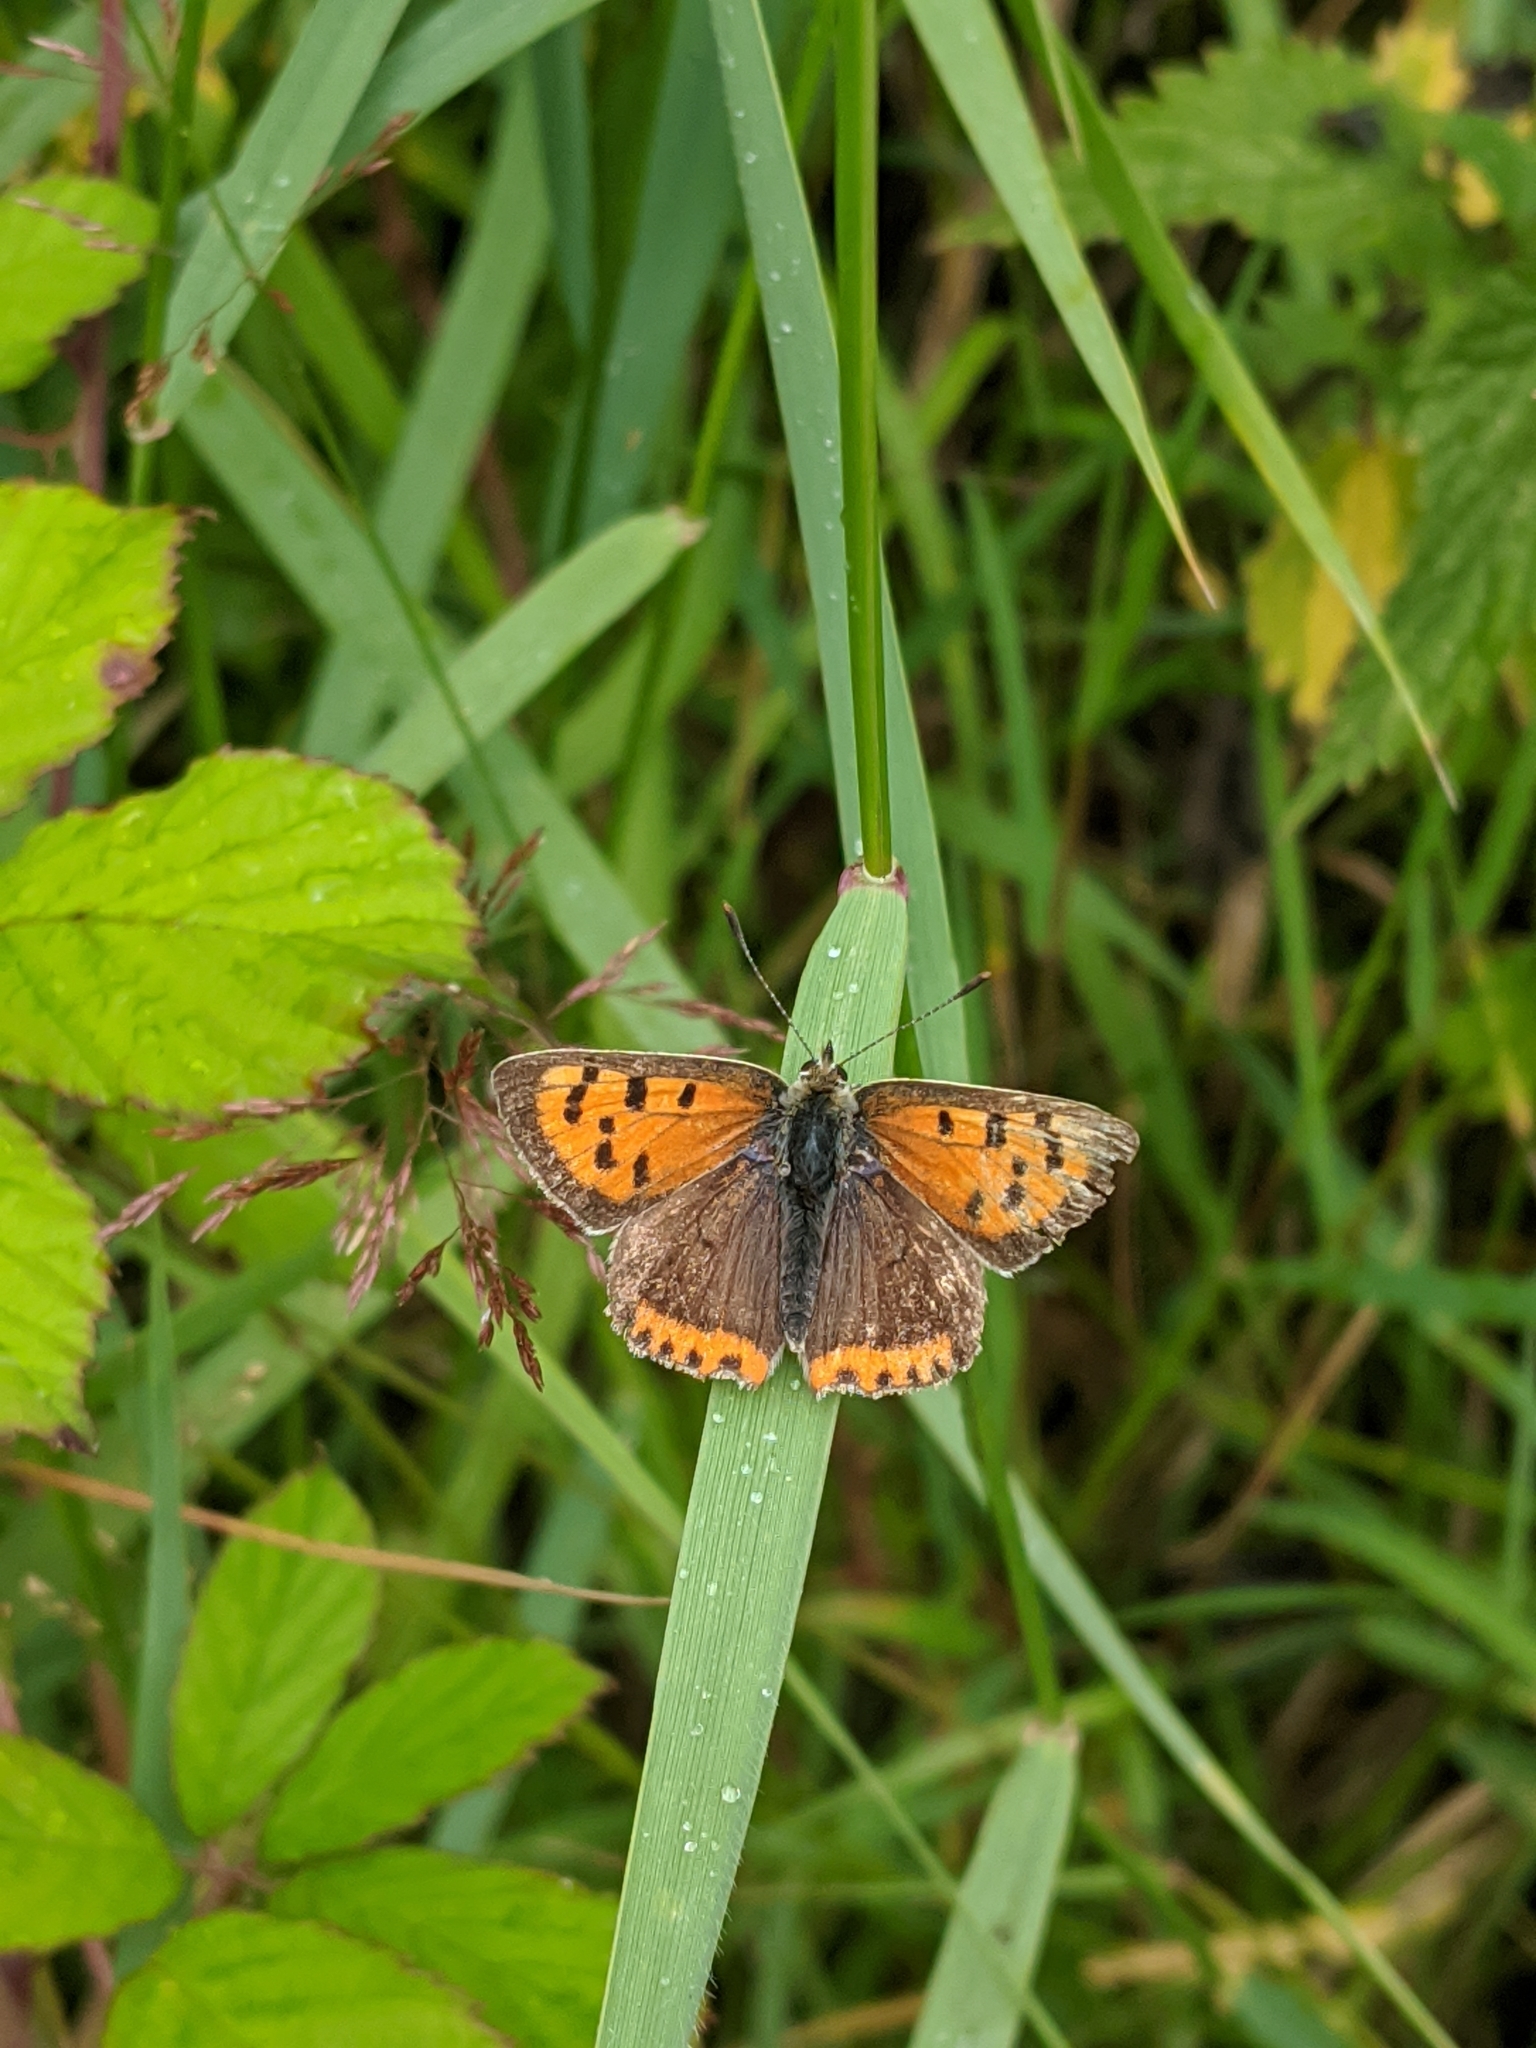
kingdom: Animalia
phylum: Arthropoda
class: Insecta
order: Lepidoptera
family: Lycaenidae
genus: Lycaena
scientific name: Lycaena phlaeas
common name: Small copper
